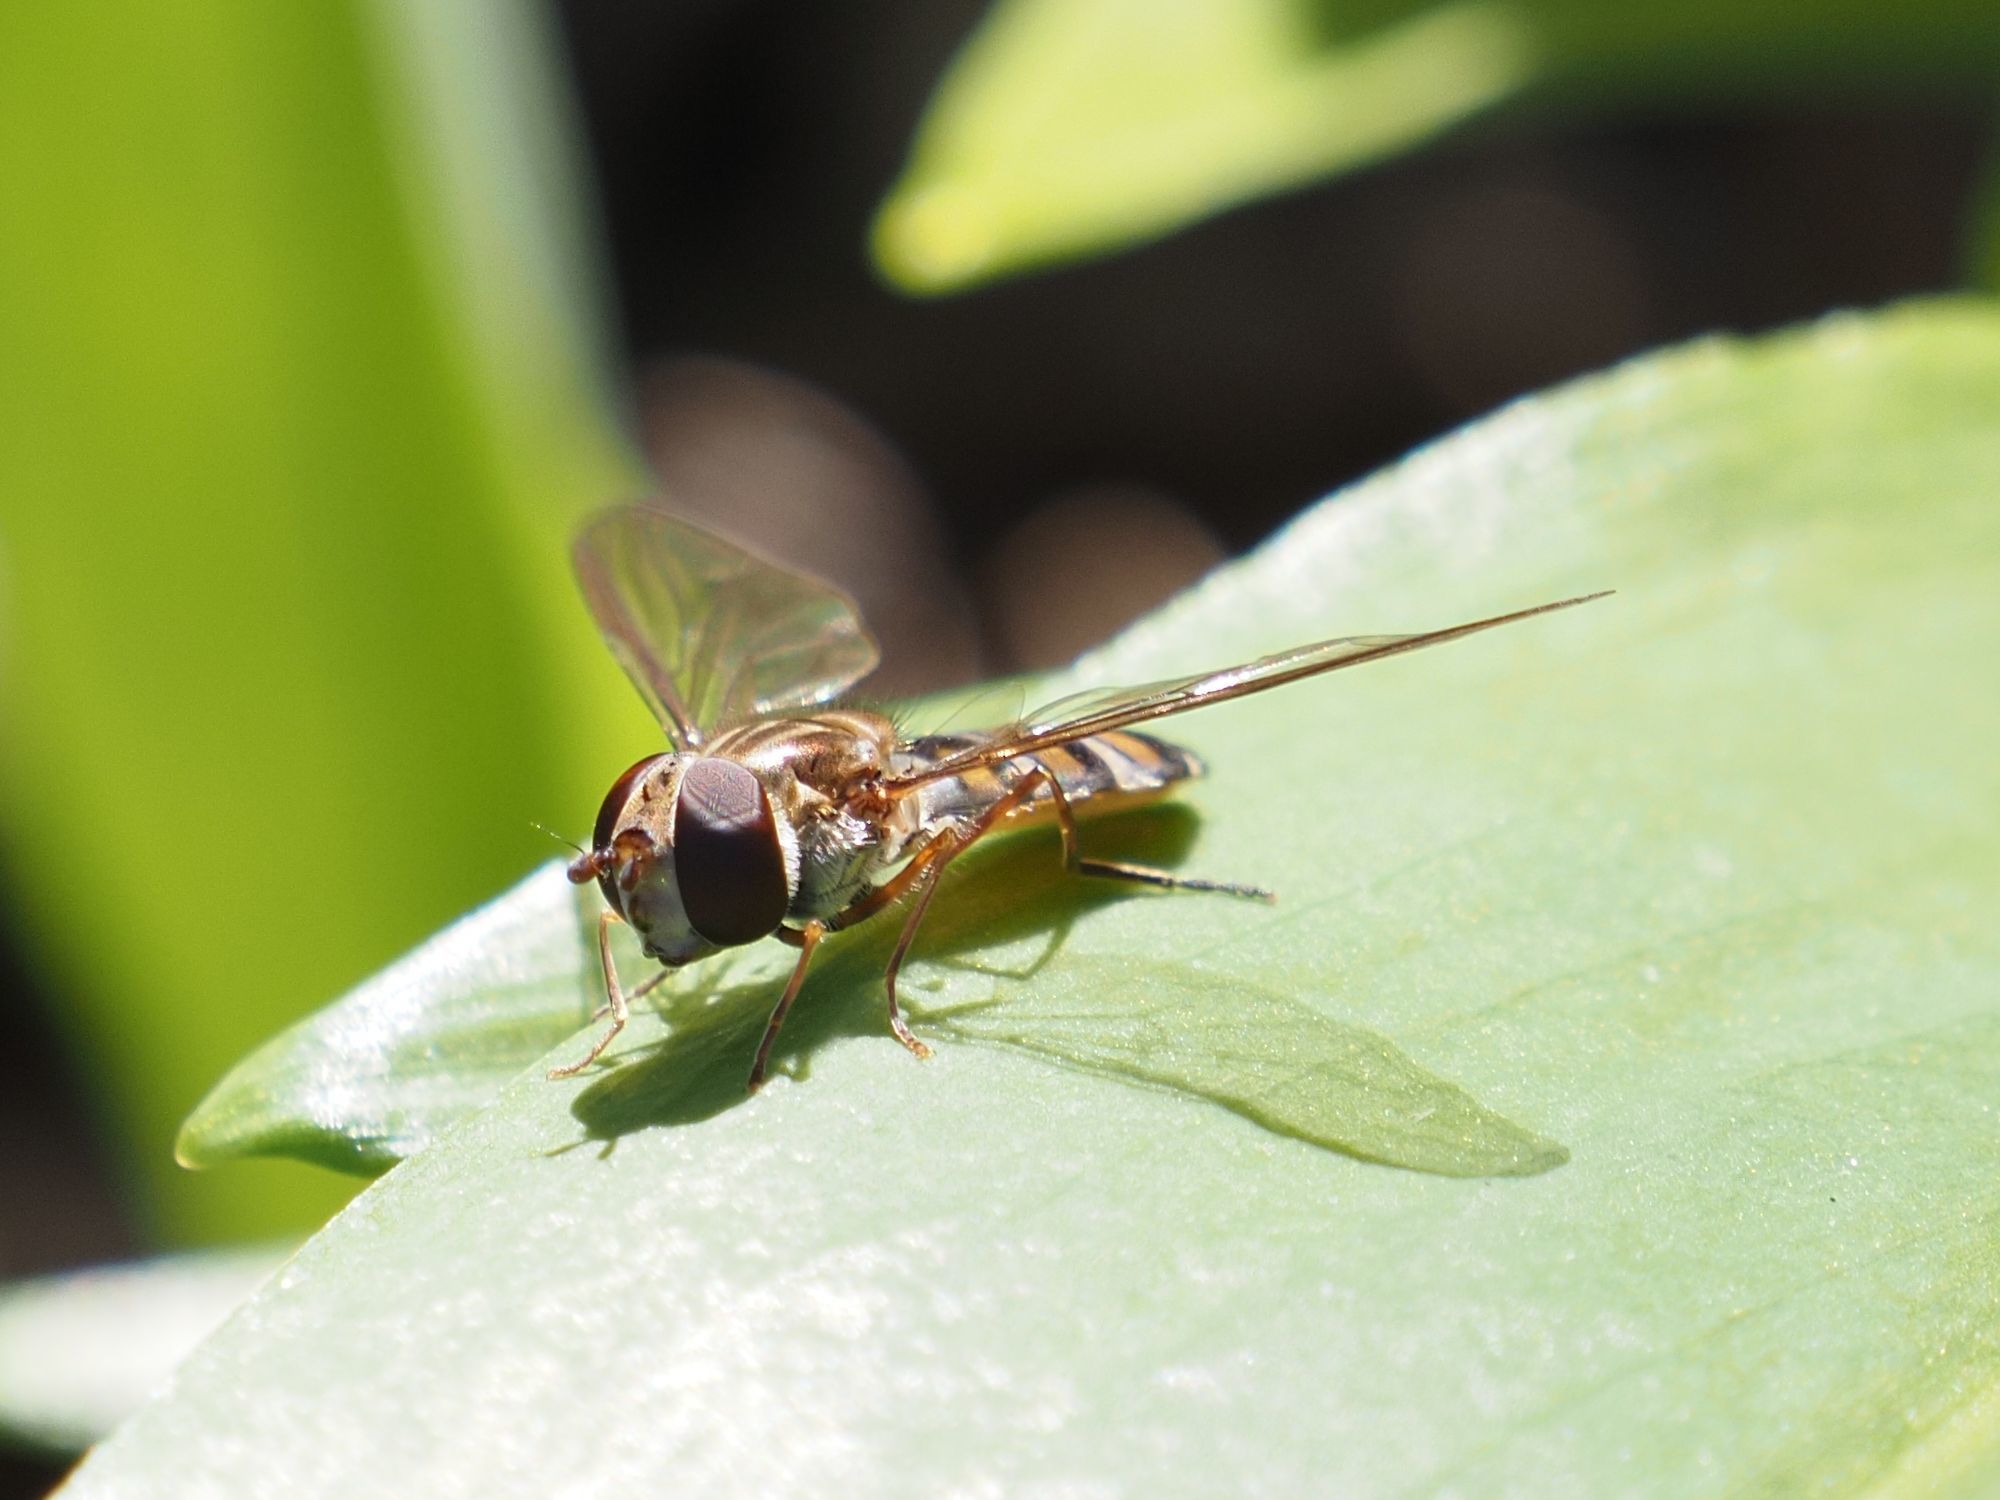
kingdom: Animalia
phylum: Arthropoda
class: Insecta
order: Diptera
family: Syrphidae
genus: Episyrphus
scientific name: Episyrphus balteatus
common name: Marmalade hoverfly
